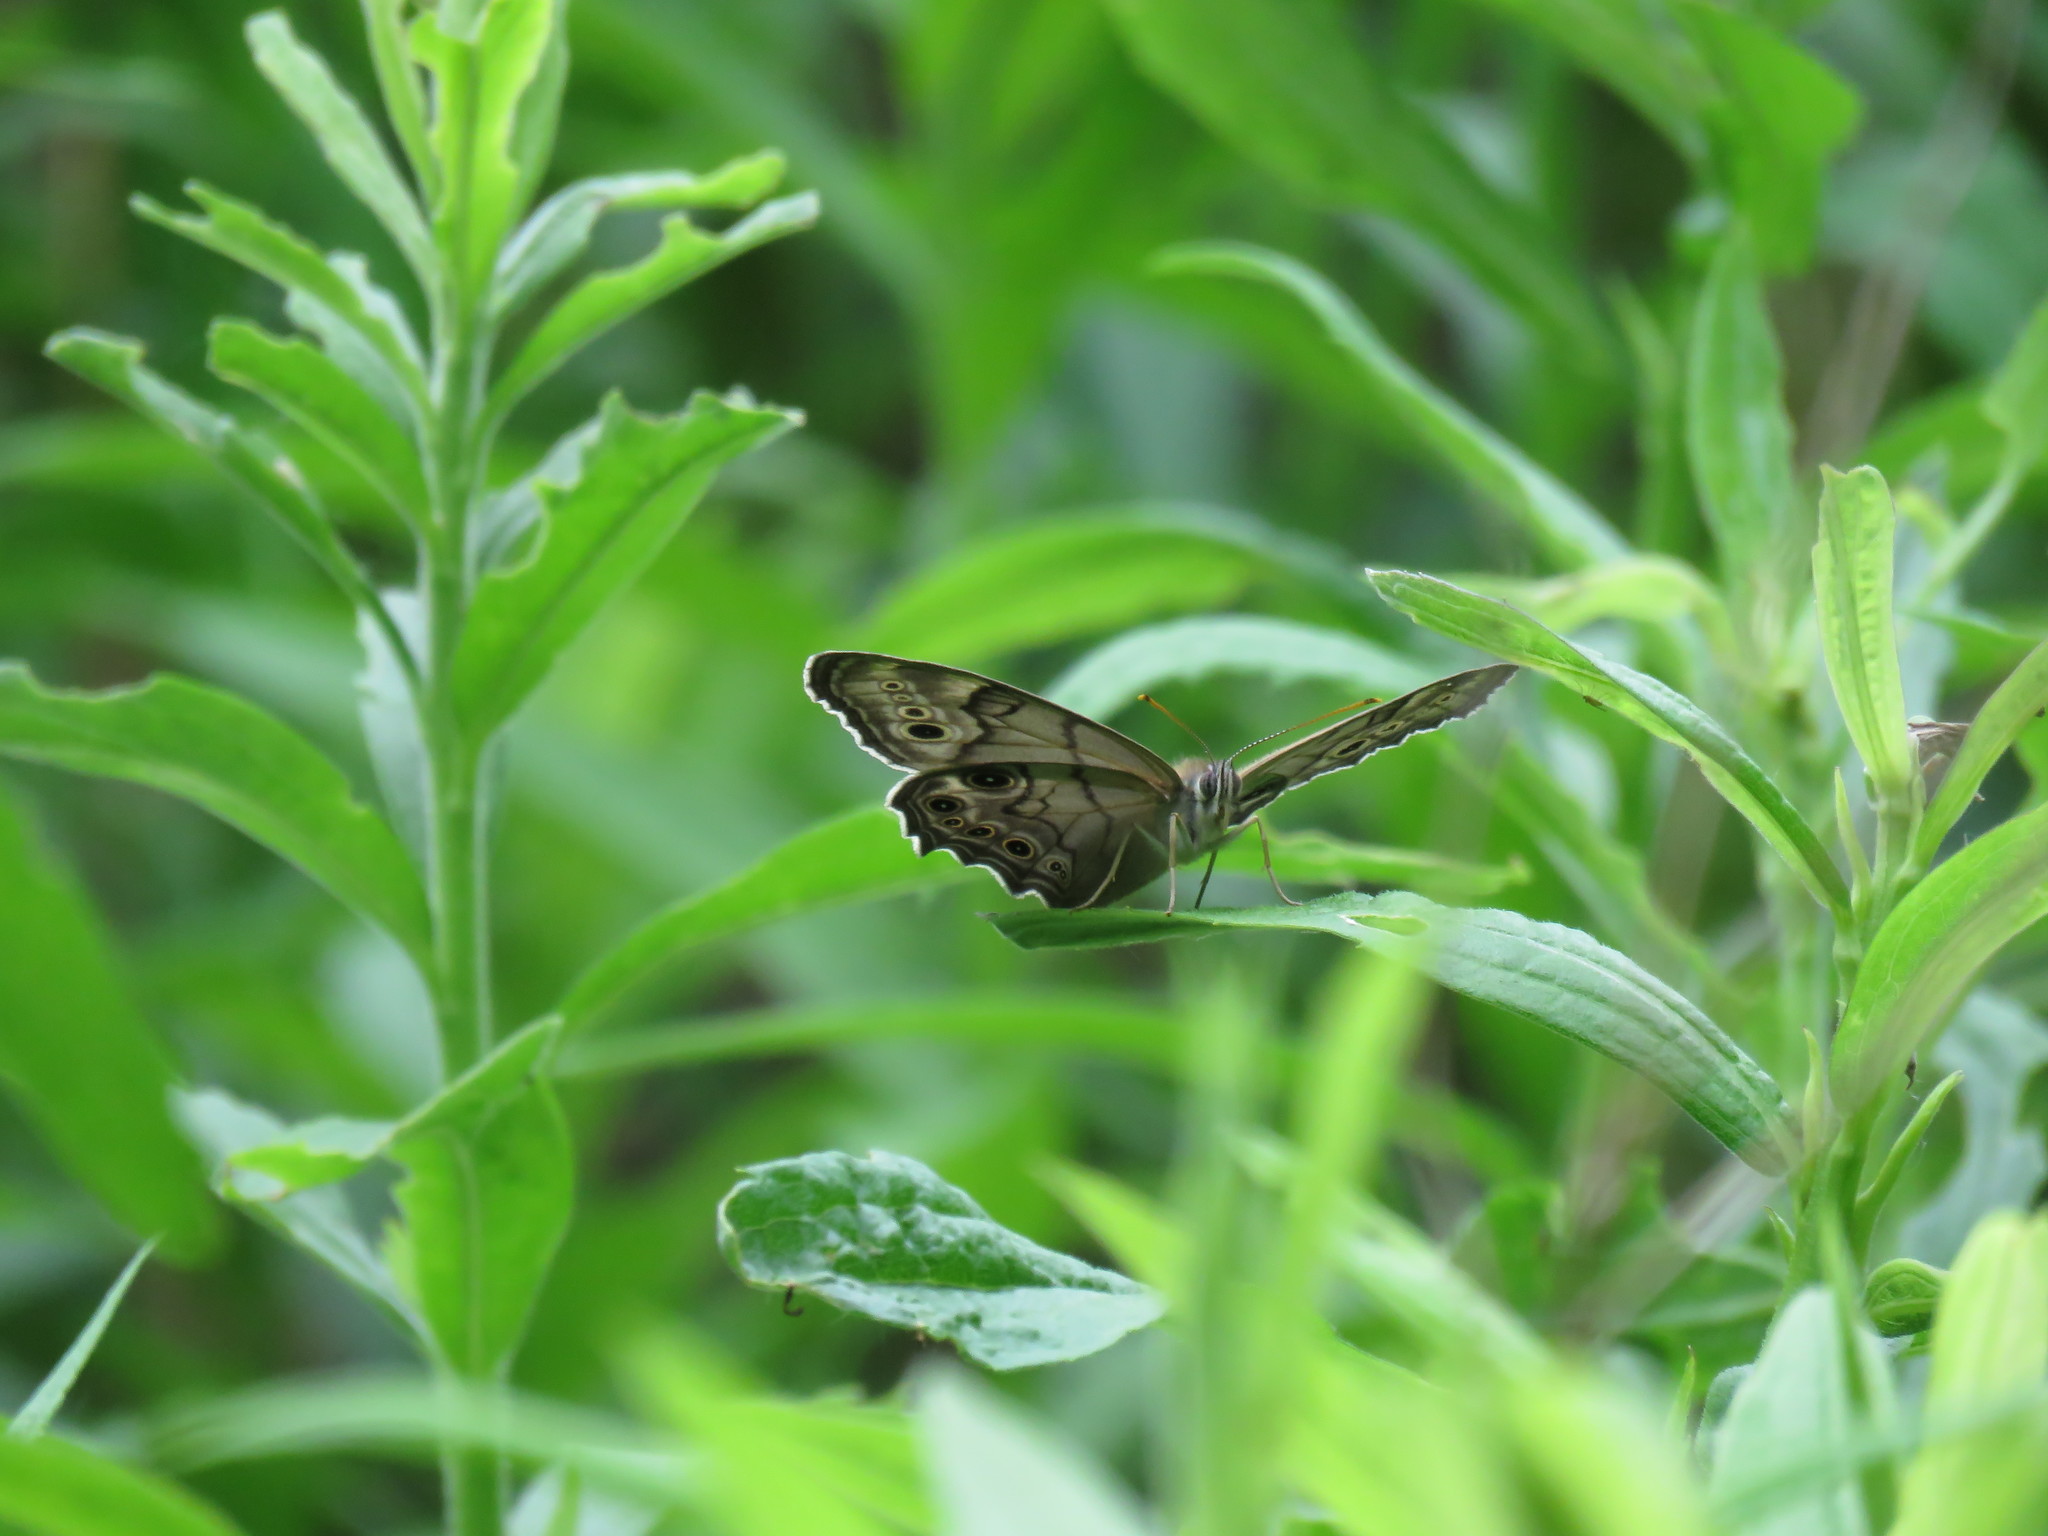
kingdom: Animalia
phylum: Arthropoda
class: Insecta
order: Lepidoptera
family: Nymphalidae
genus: Lethe
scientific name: Lethe anthedon
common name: Northern pearly-eye
